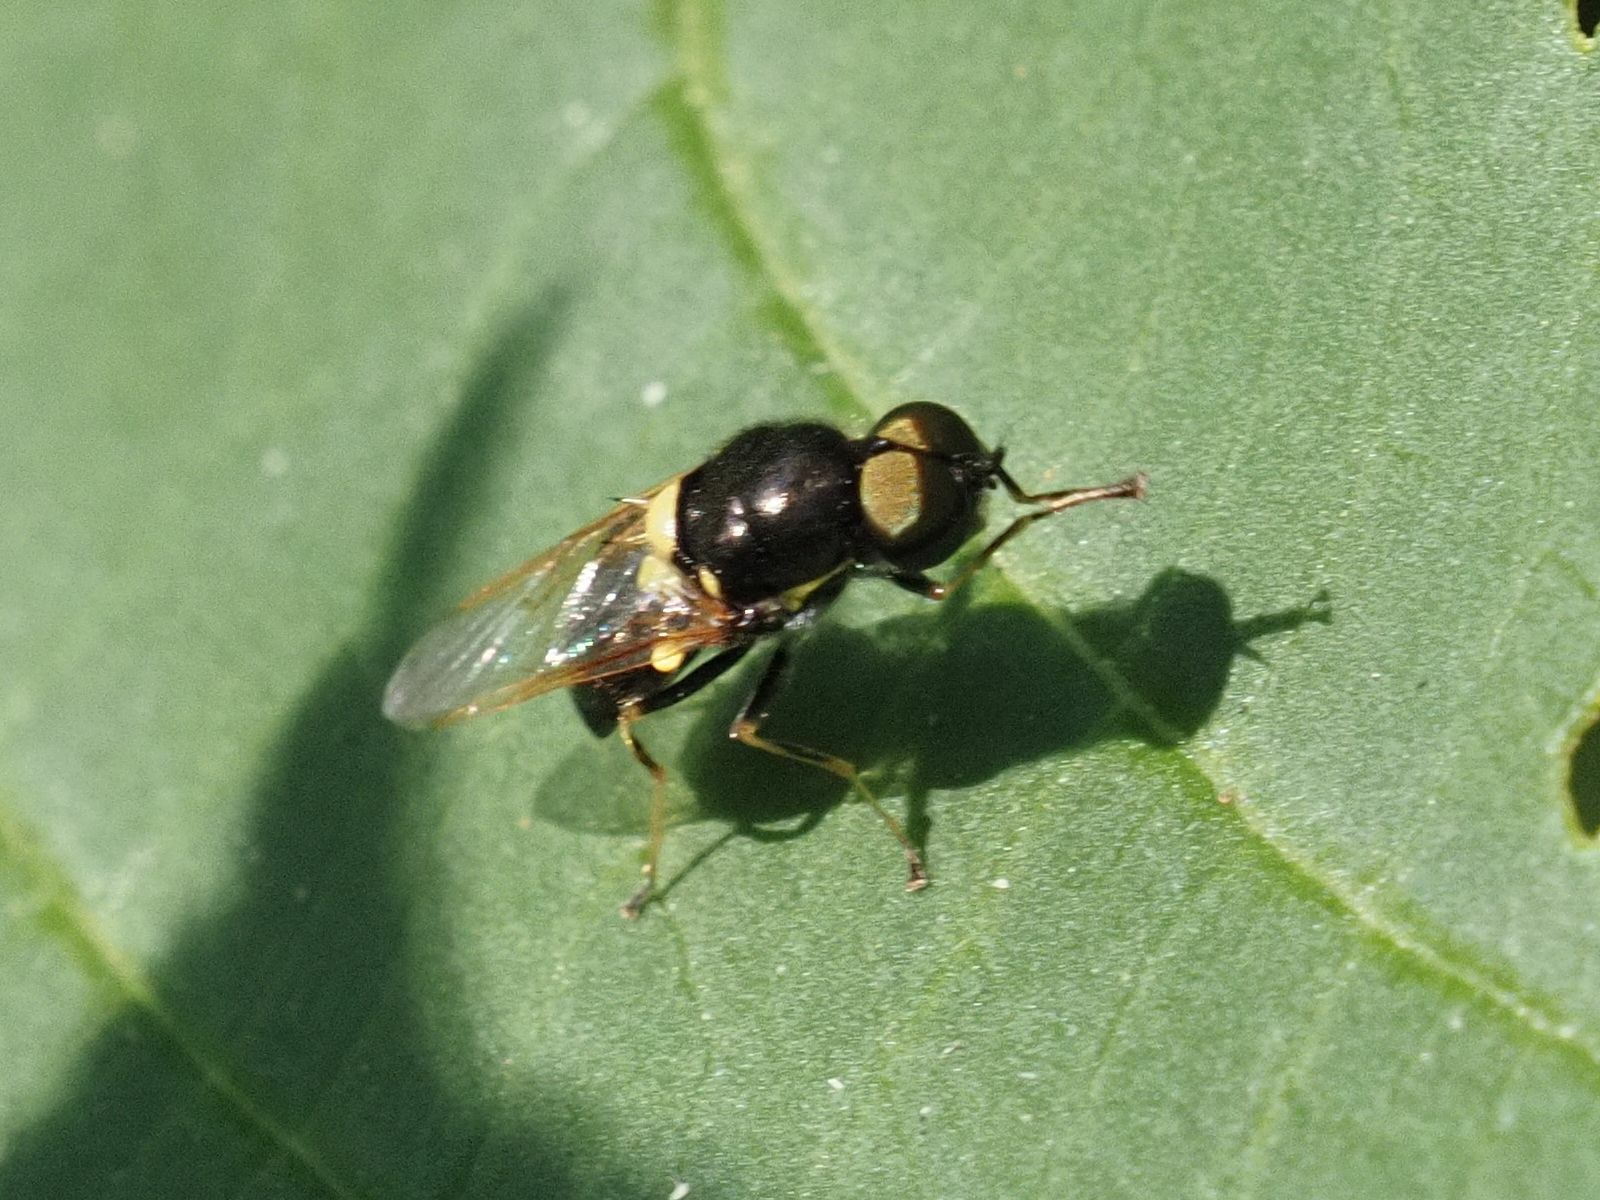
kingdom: Animalia
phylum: Arthropoda
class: Insecta
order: Diptera
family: Stratiomyidae
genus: Oxycera
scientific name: Oxycera leonina
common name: Twin-spotted major
